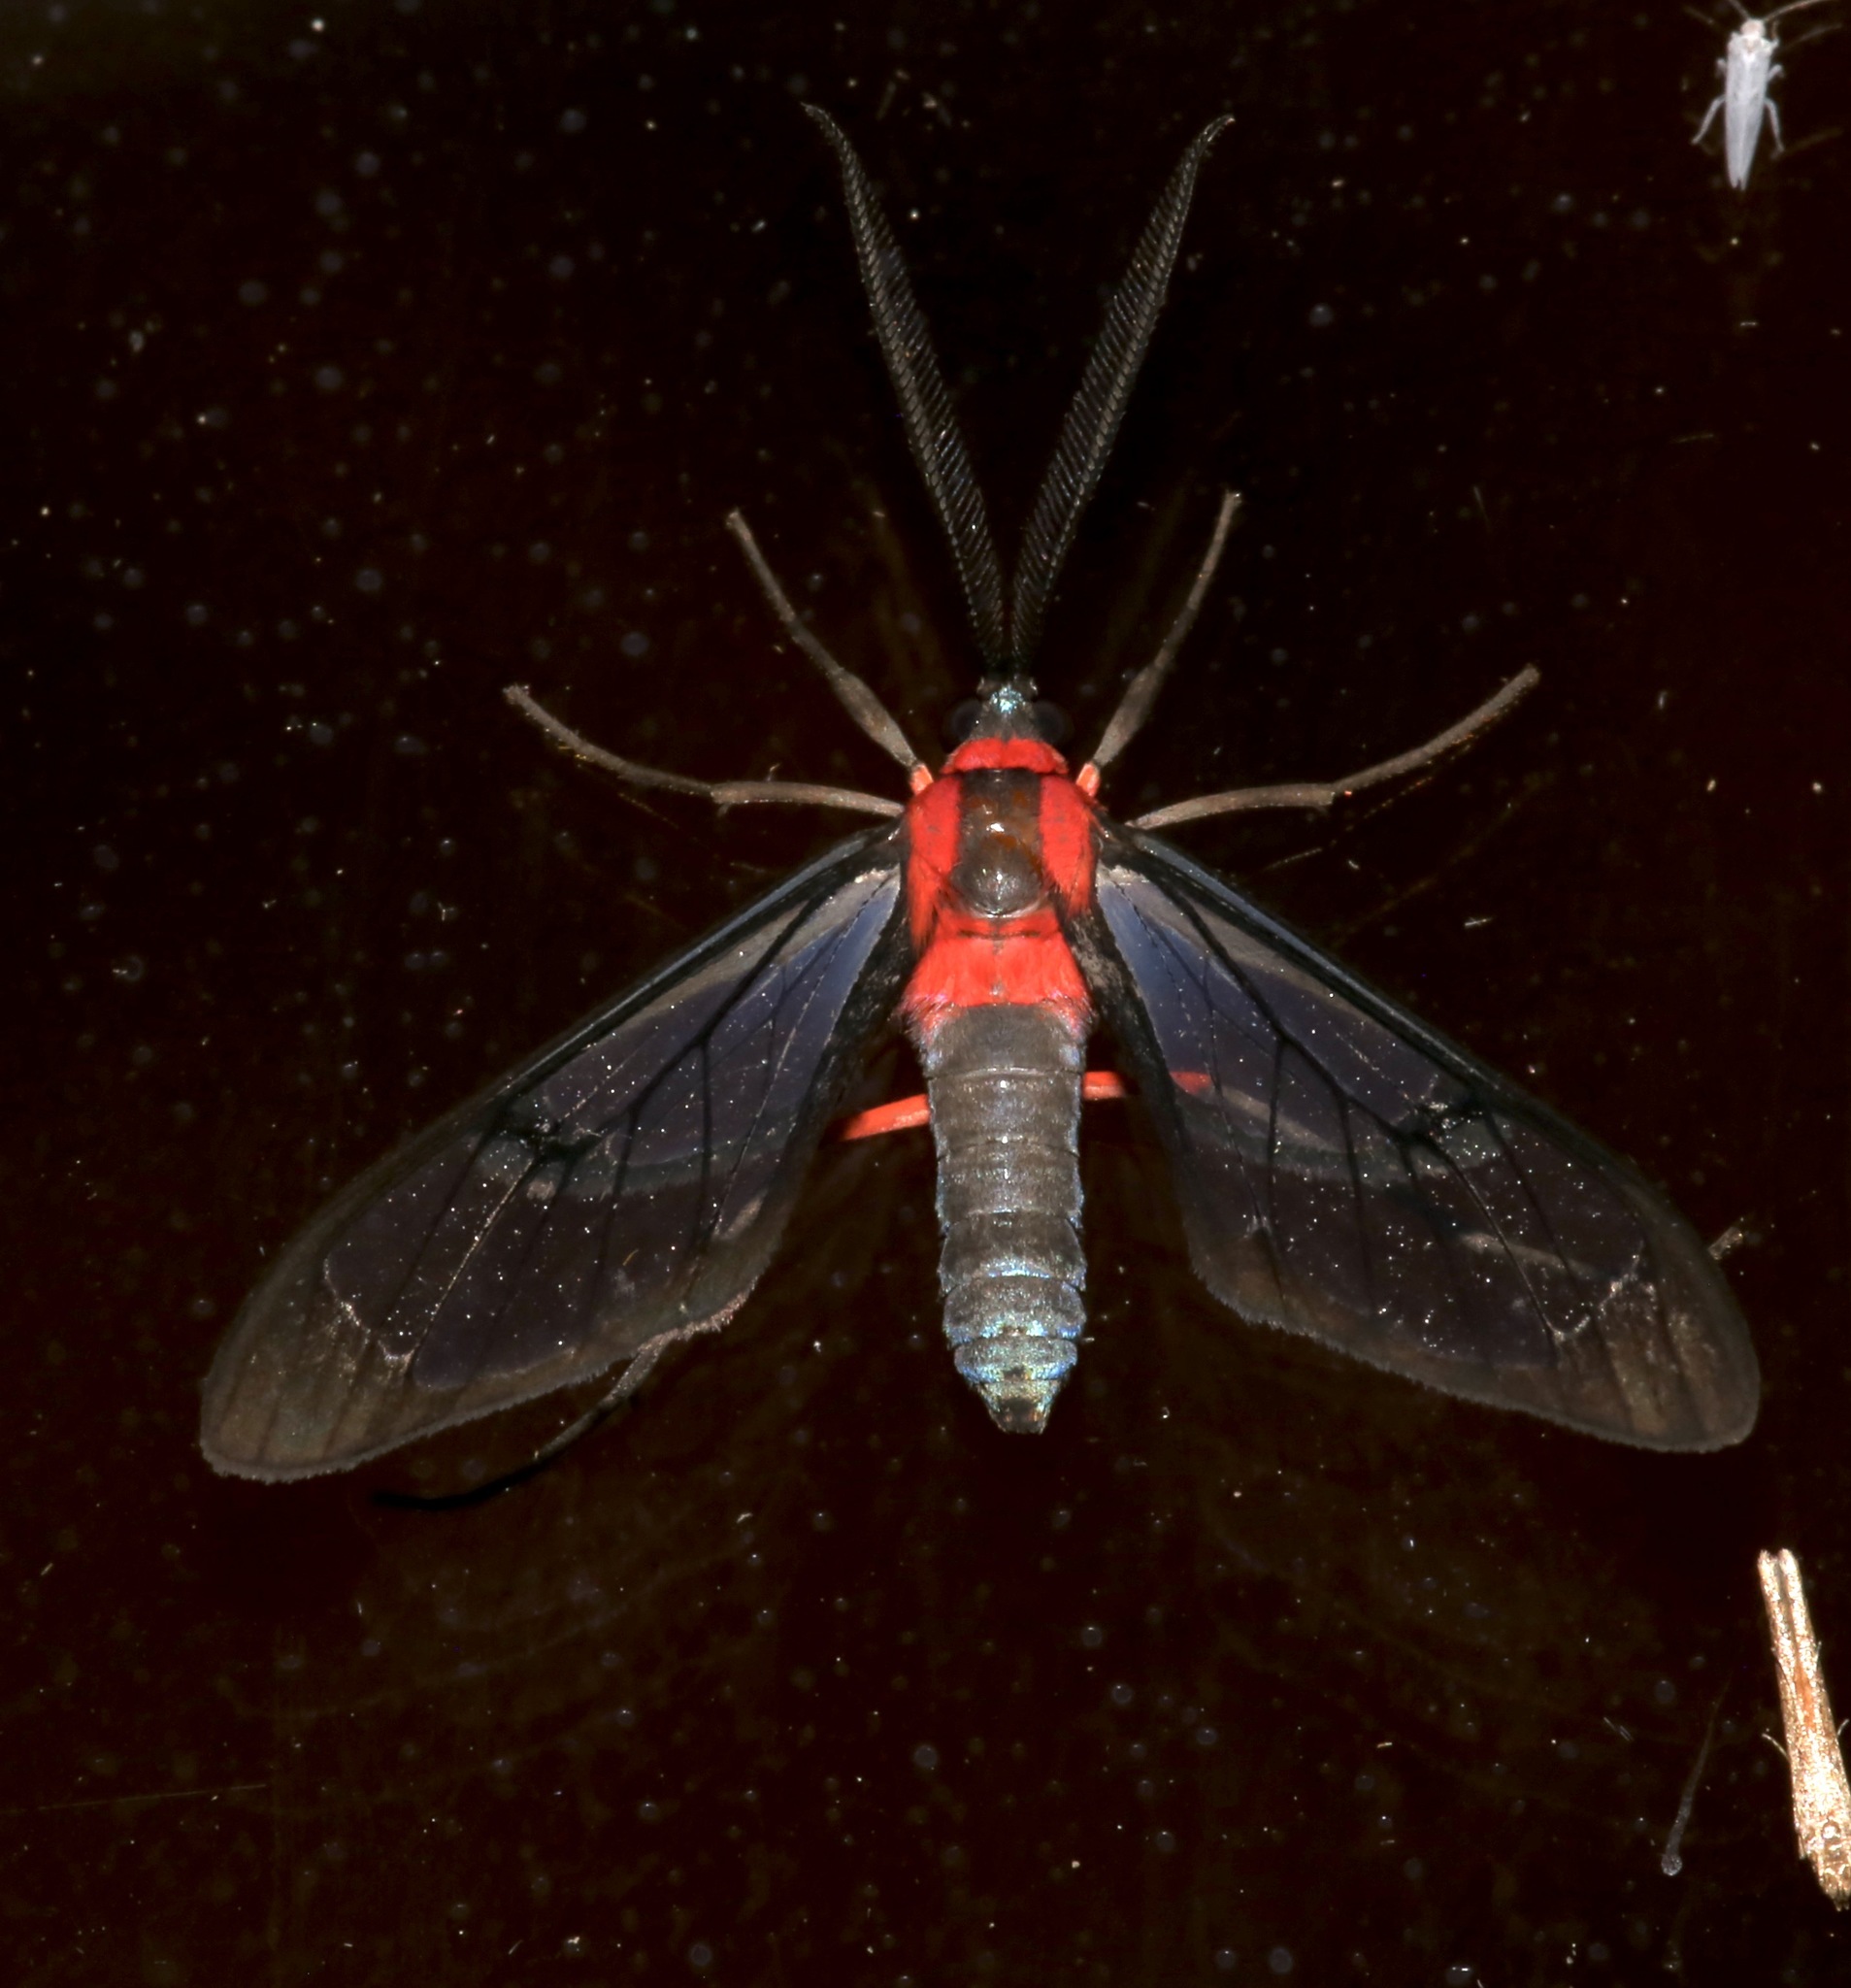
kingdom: Animalia
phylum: Arthropoda
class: Insecta
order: Lepidoptera
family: Erebidae
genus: Mesothen
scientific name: Mesothen erythaema
